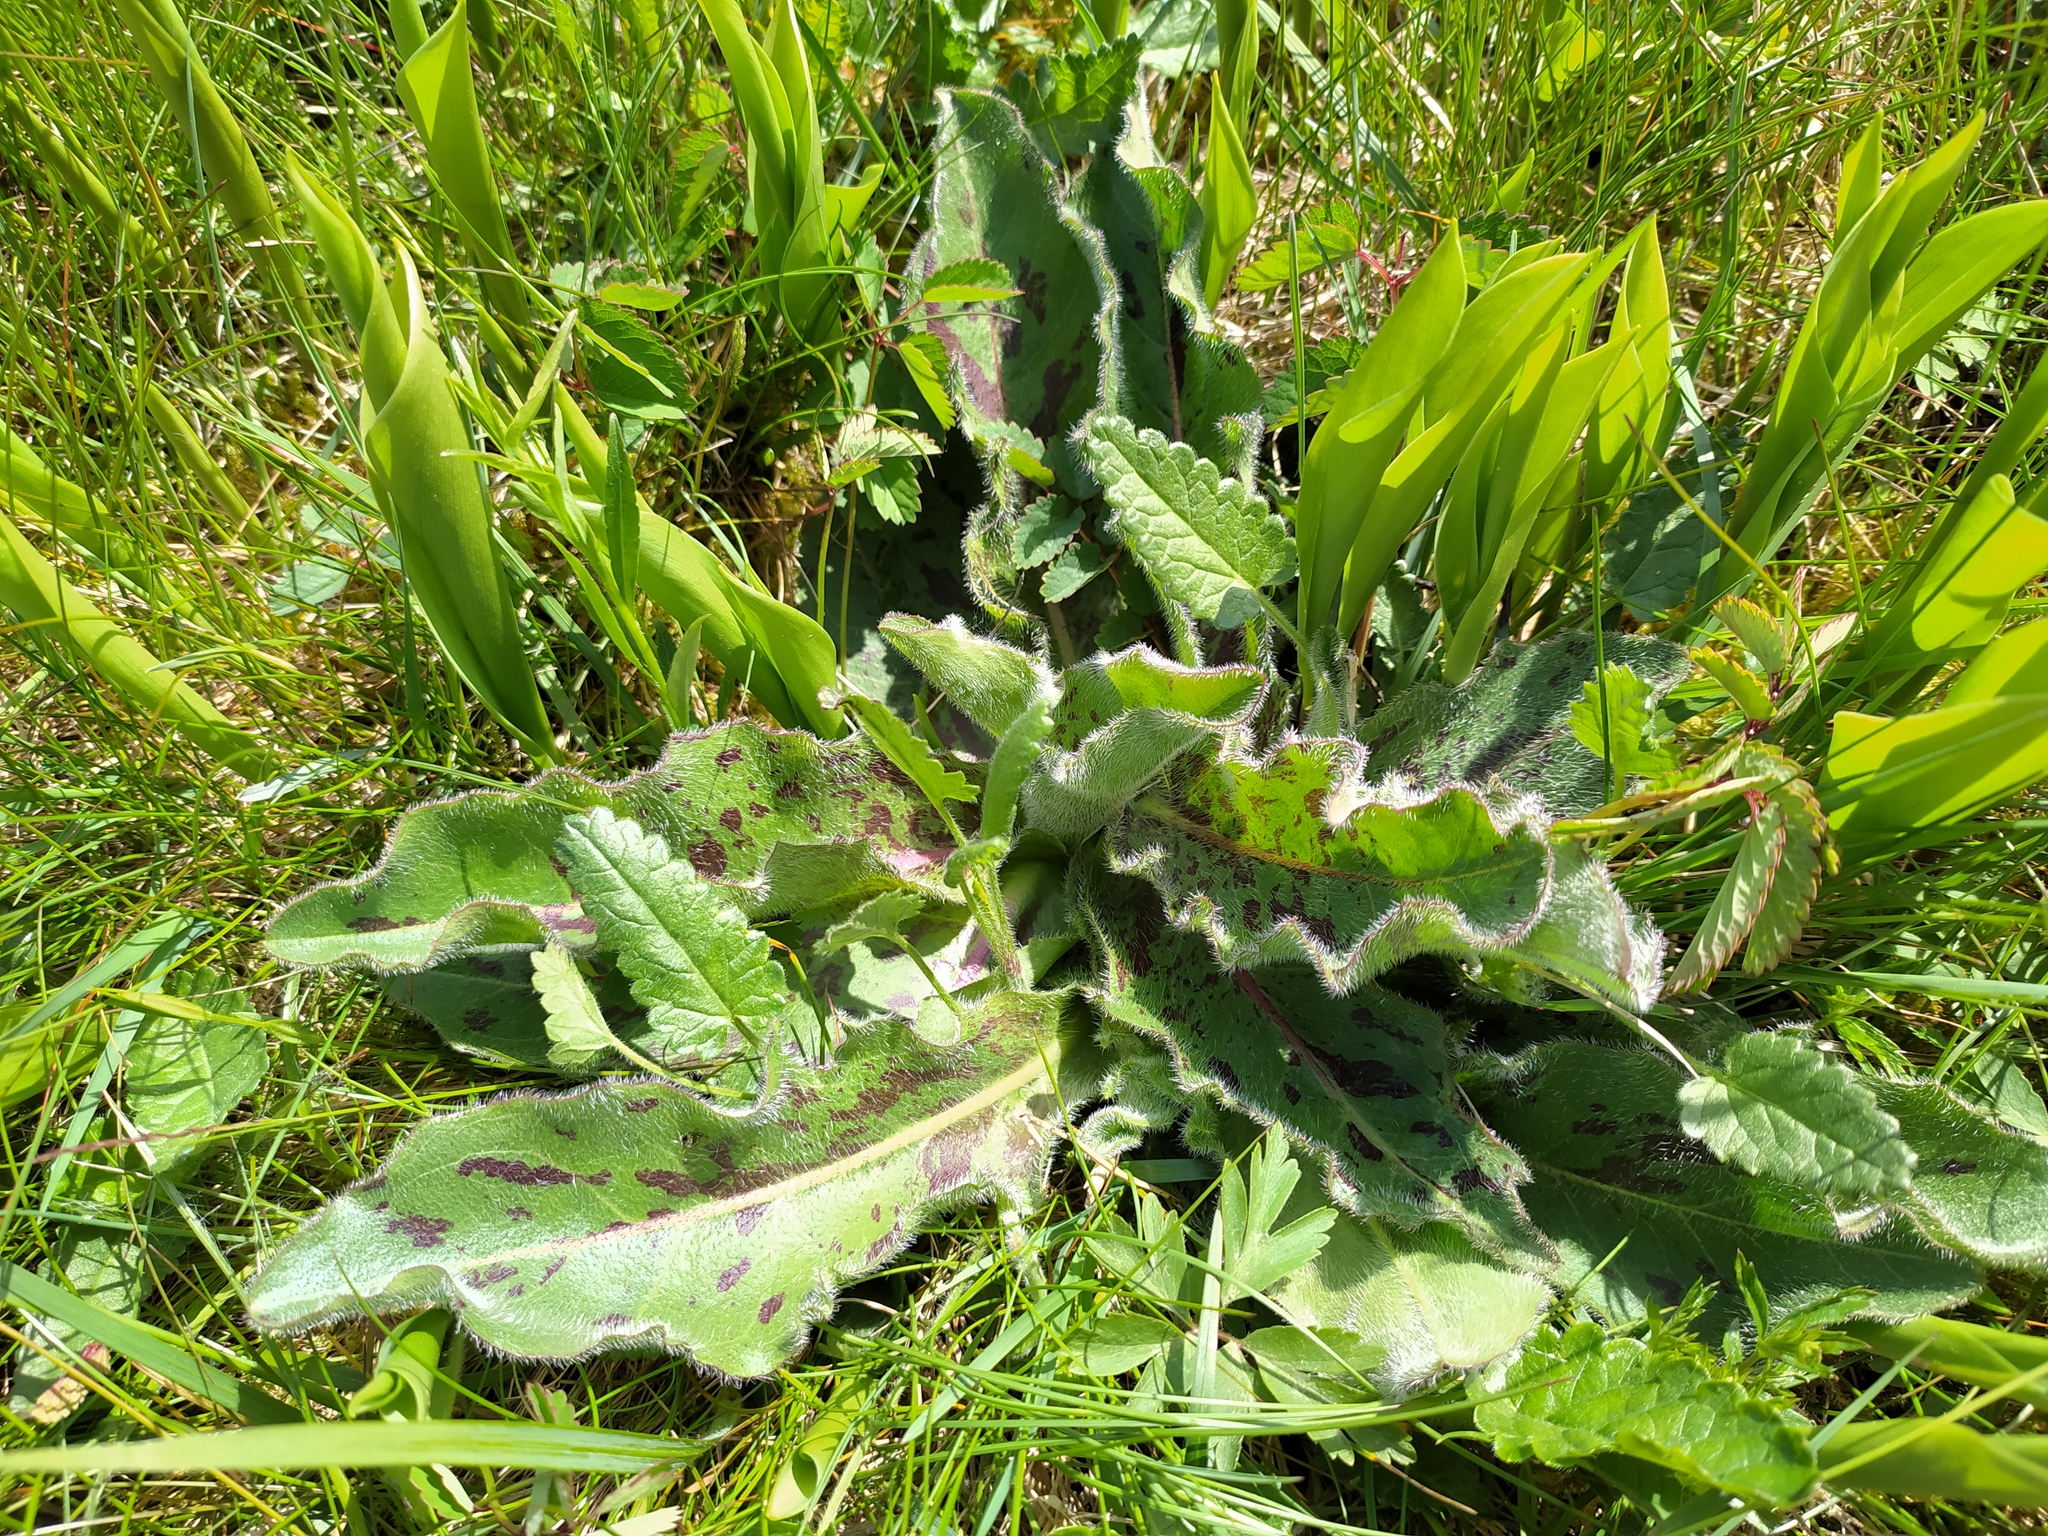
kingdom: Plantae
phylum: Tracheophyta
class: Magnoliopsida
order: Asterales
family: Asteraceae
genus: Trommsdorffia
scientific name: Trommsdorffia maculata
